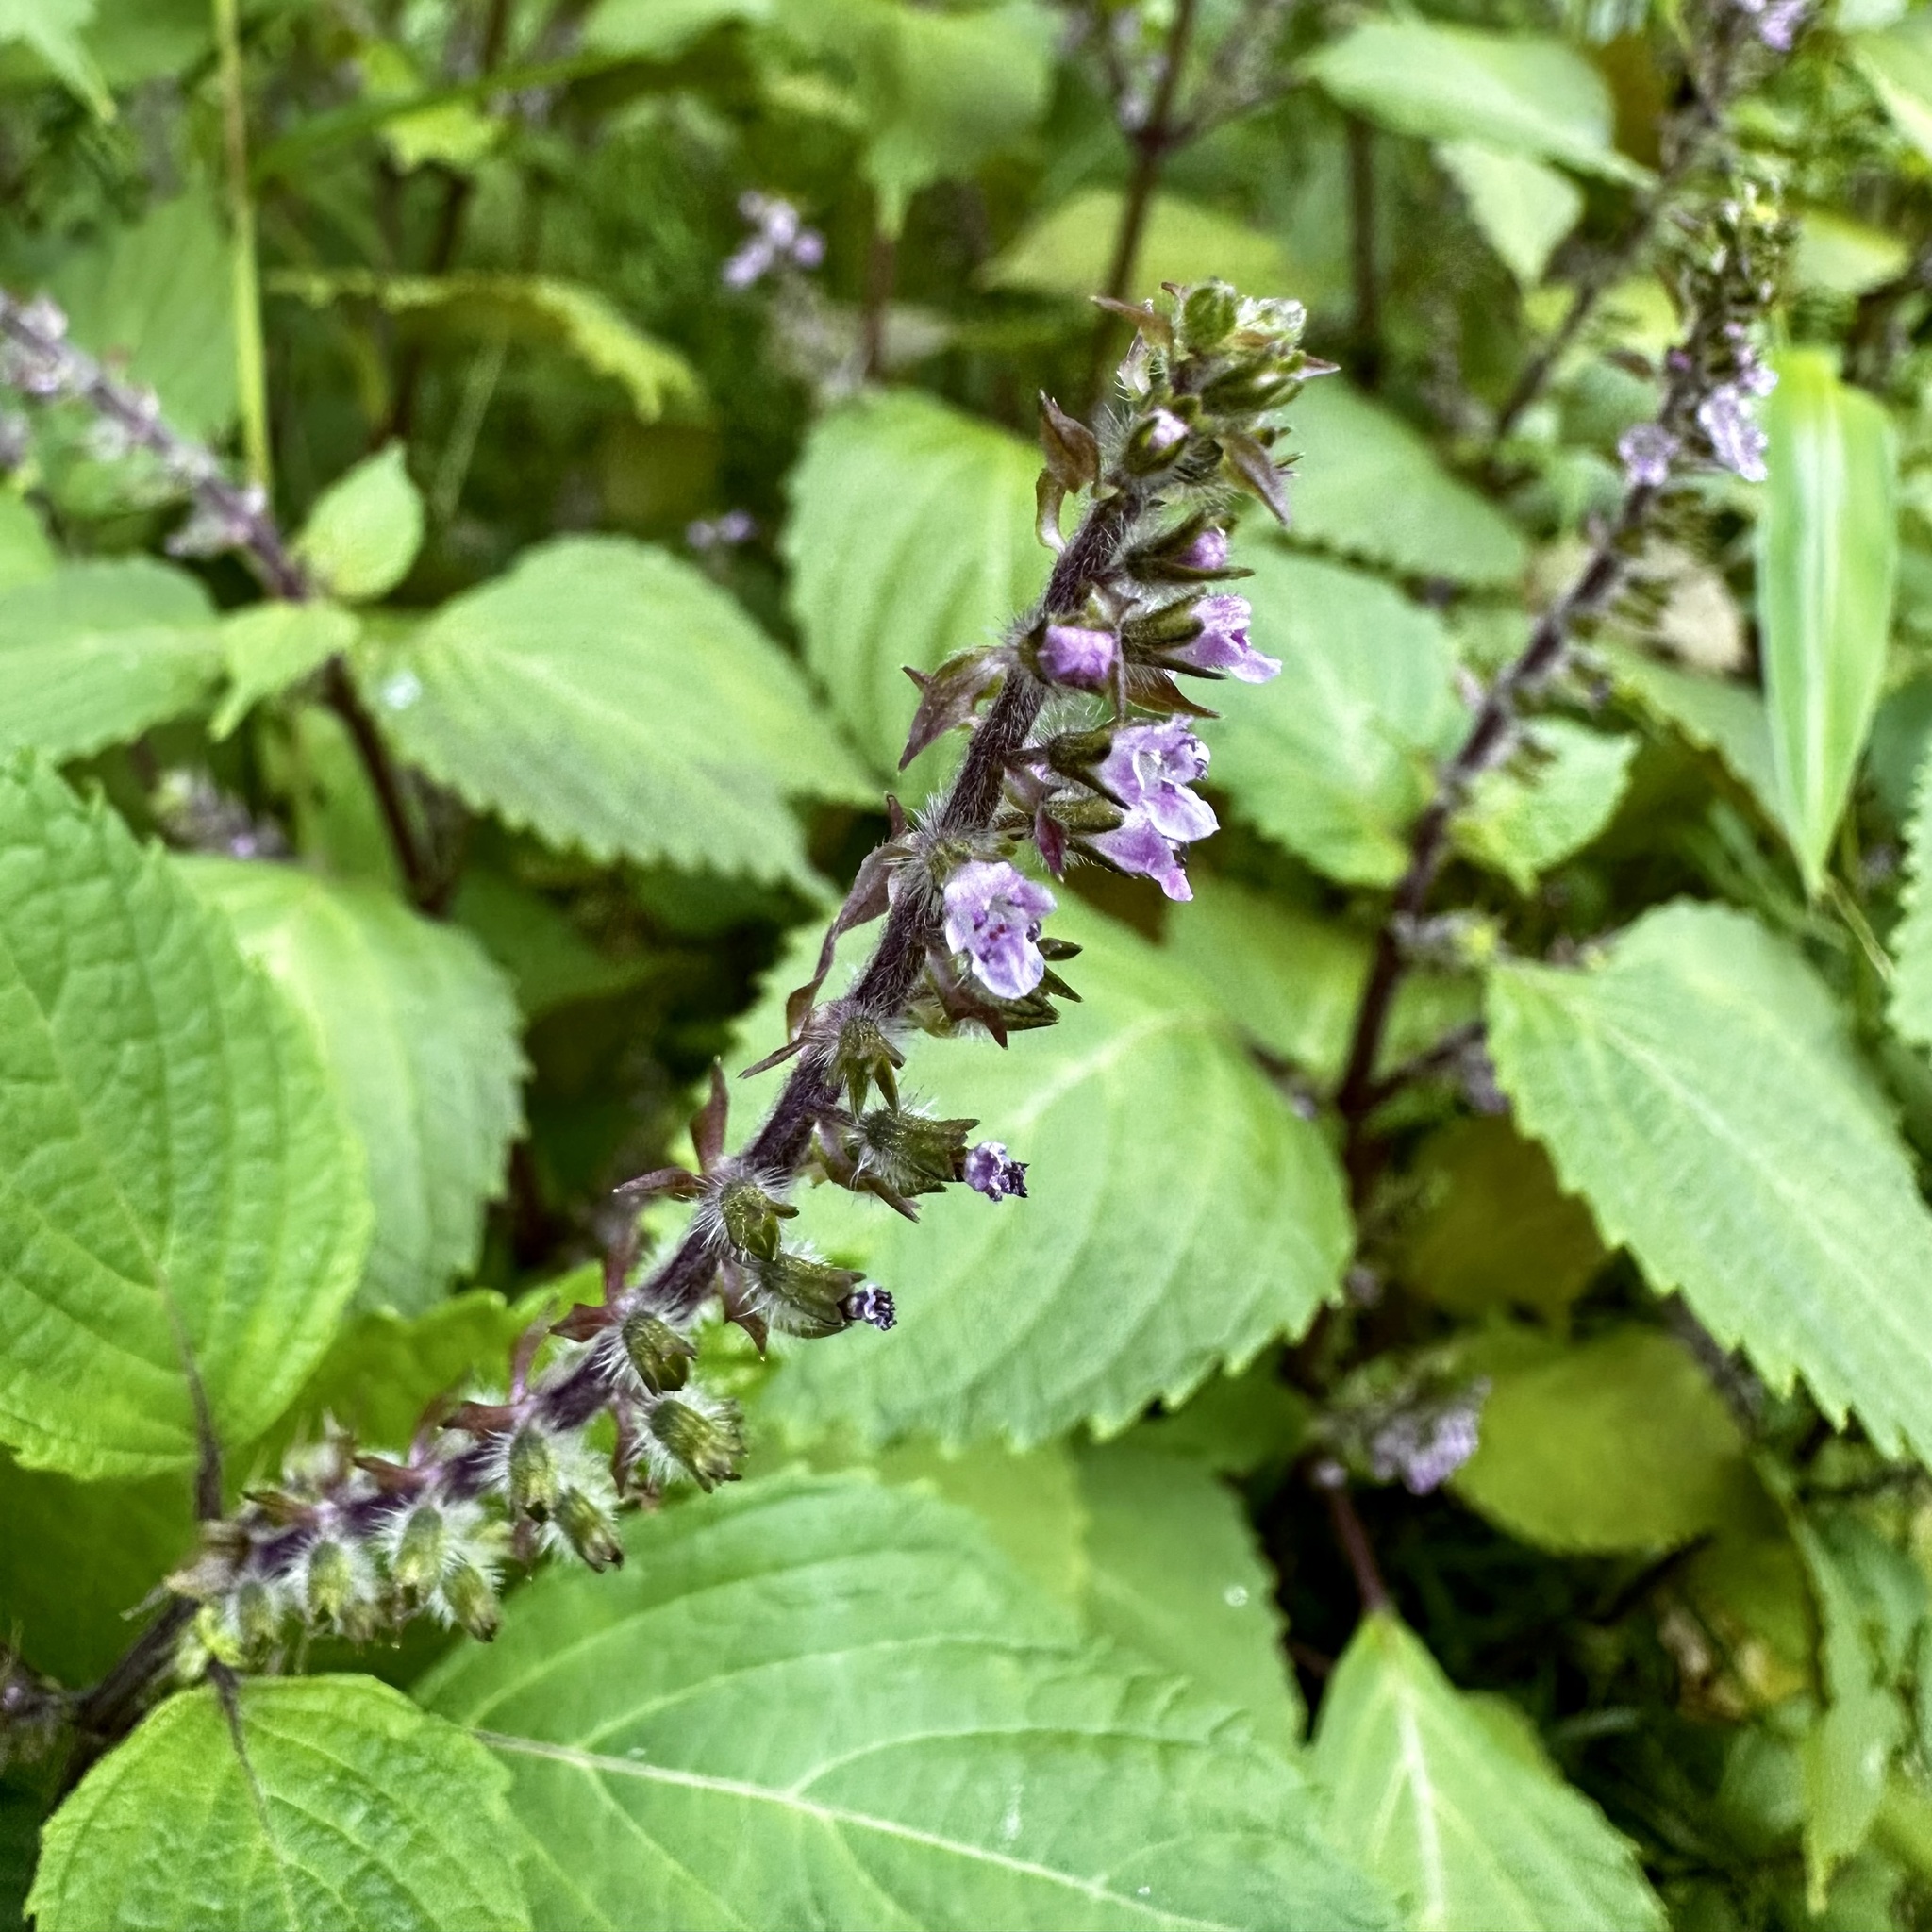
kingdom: Plantae
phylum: Tracheophyta
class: Magnoliopsida
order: Lamiales
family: Lamiaceae
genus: Perilla
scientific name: Perilla frutescens
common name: Perilla
